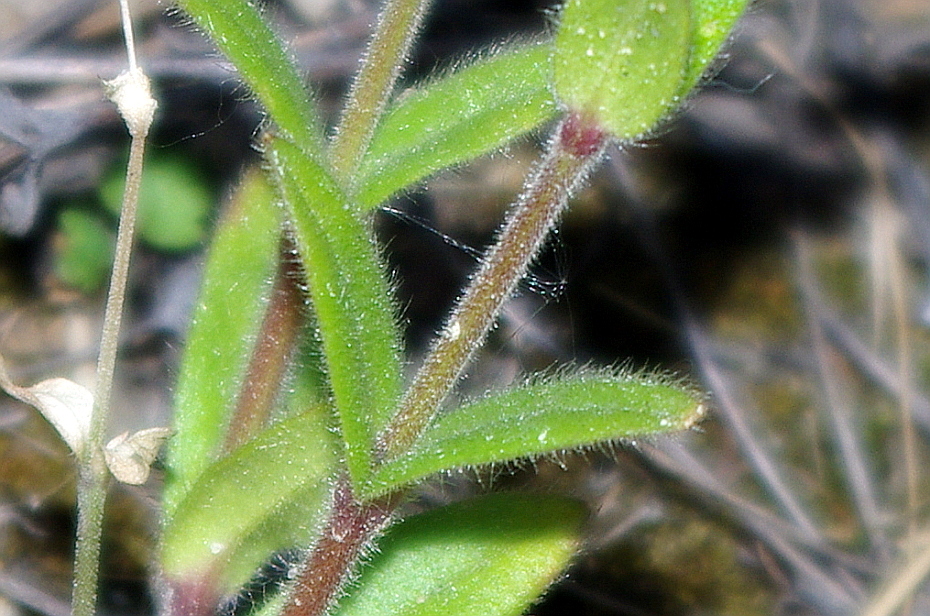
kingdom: Plantae
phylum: Tracheophyta
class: Magnoliopsida
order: Caryophyllales
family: Caryophyllaceae
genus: Cerastium
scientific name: Cerastium holosteoides
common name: Big chickweed
